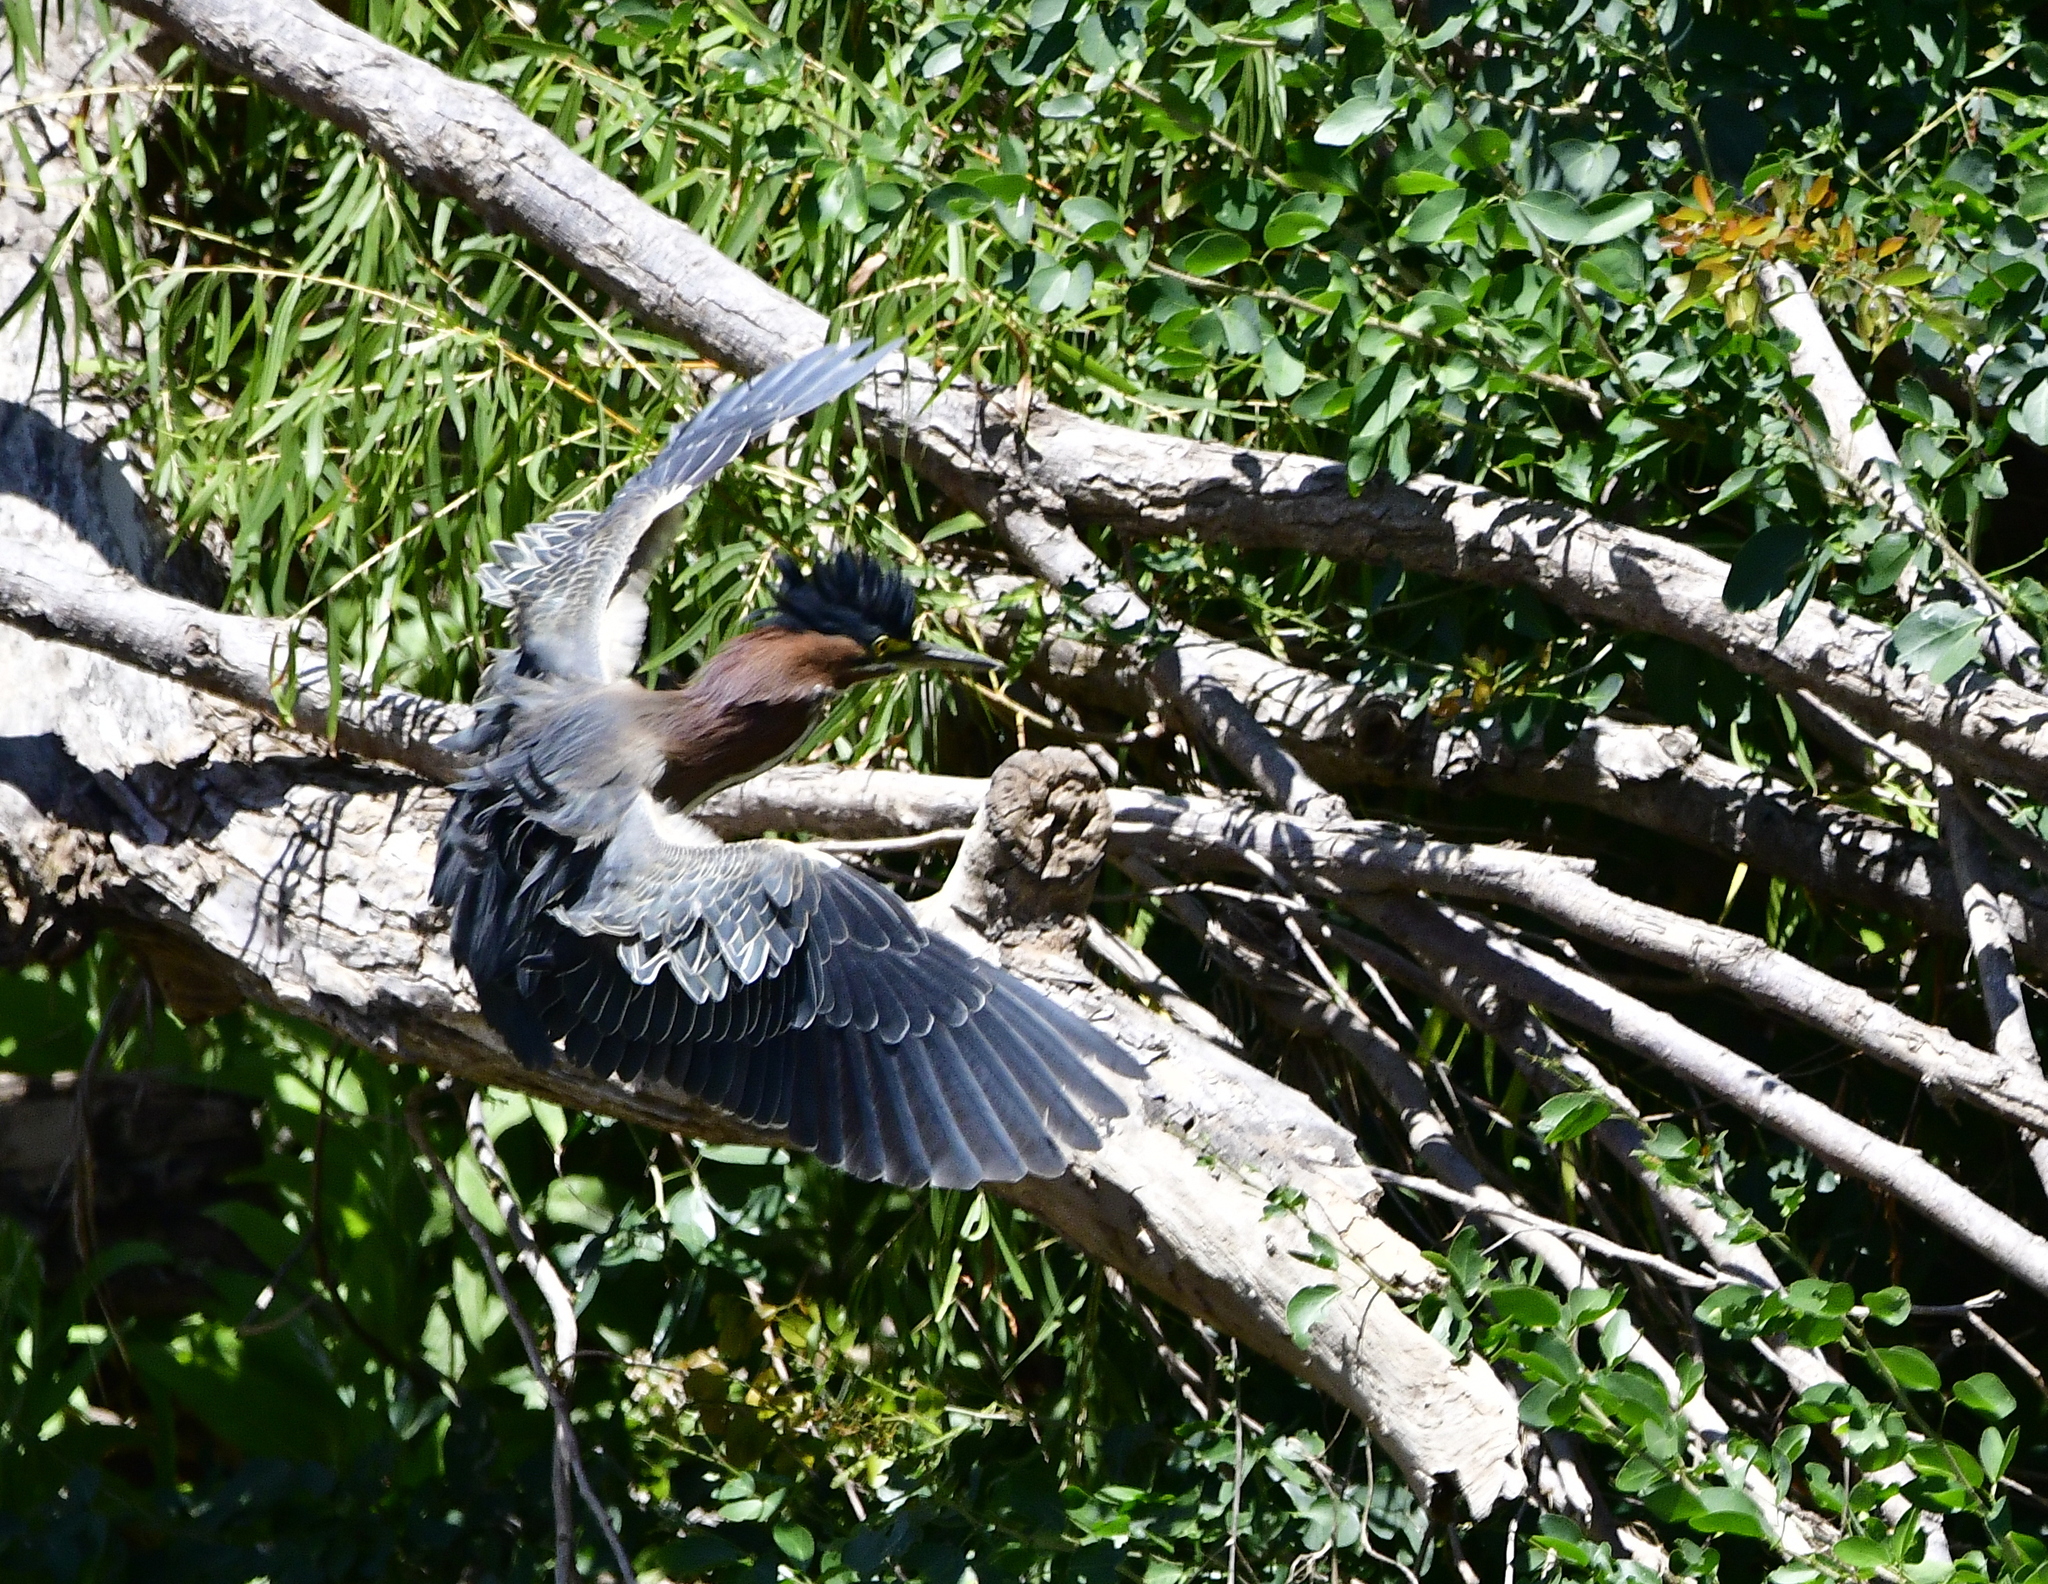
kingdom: Animalia
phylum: Chordata
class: Aves
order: Pelecaniformes
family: Ardeidae
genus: Butorides
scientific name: Butorides virescens
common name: Green heron
